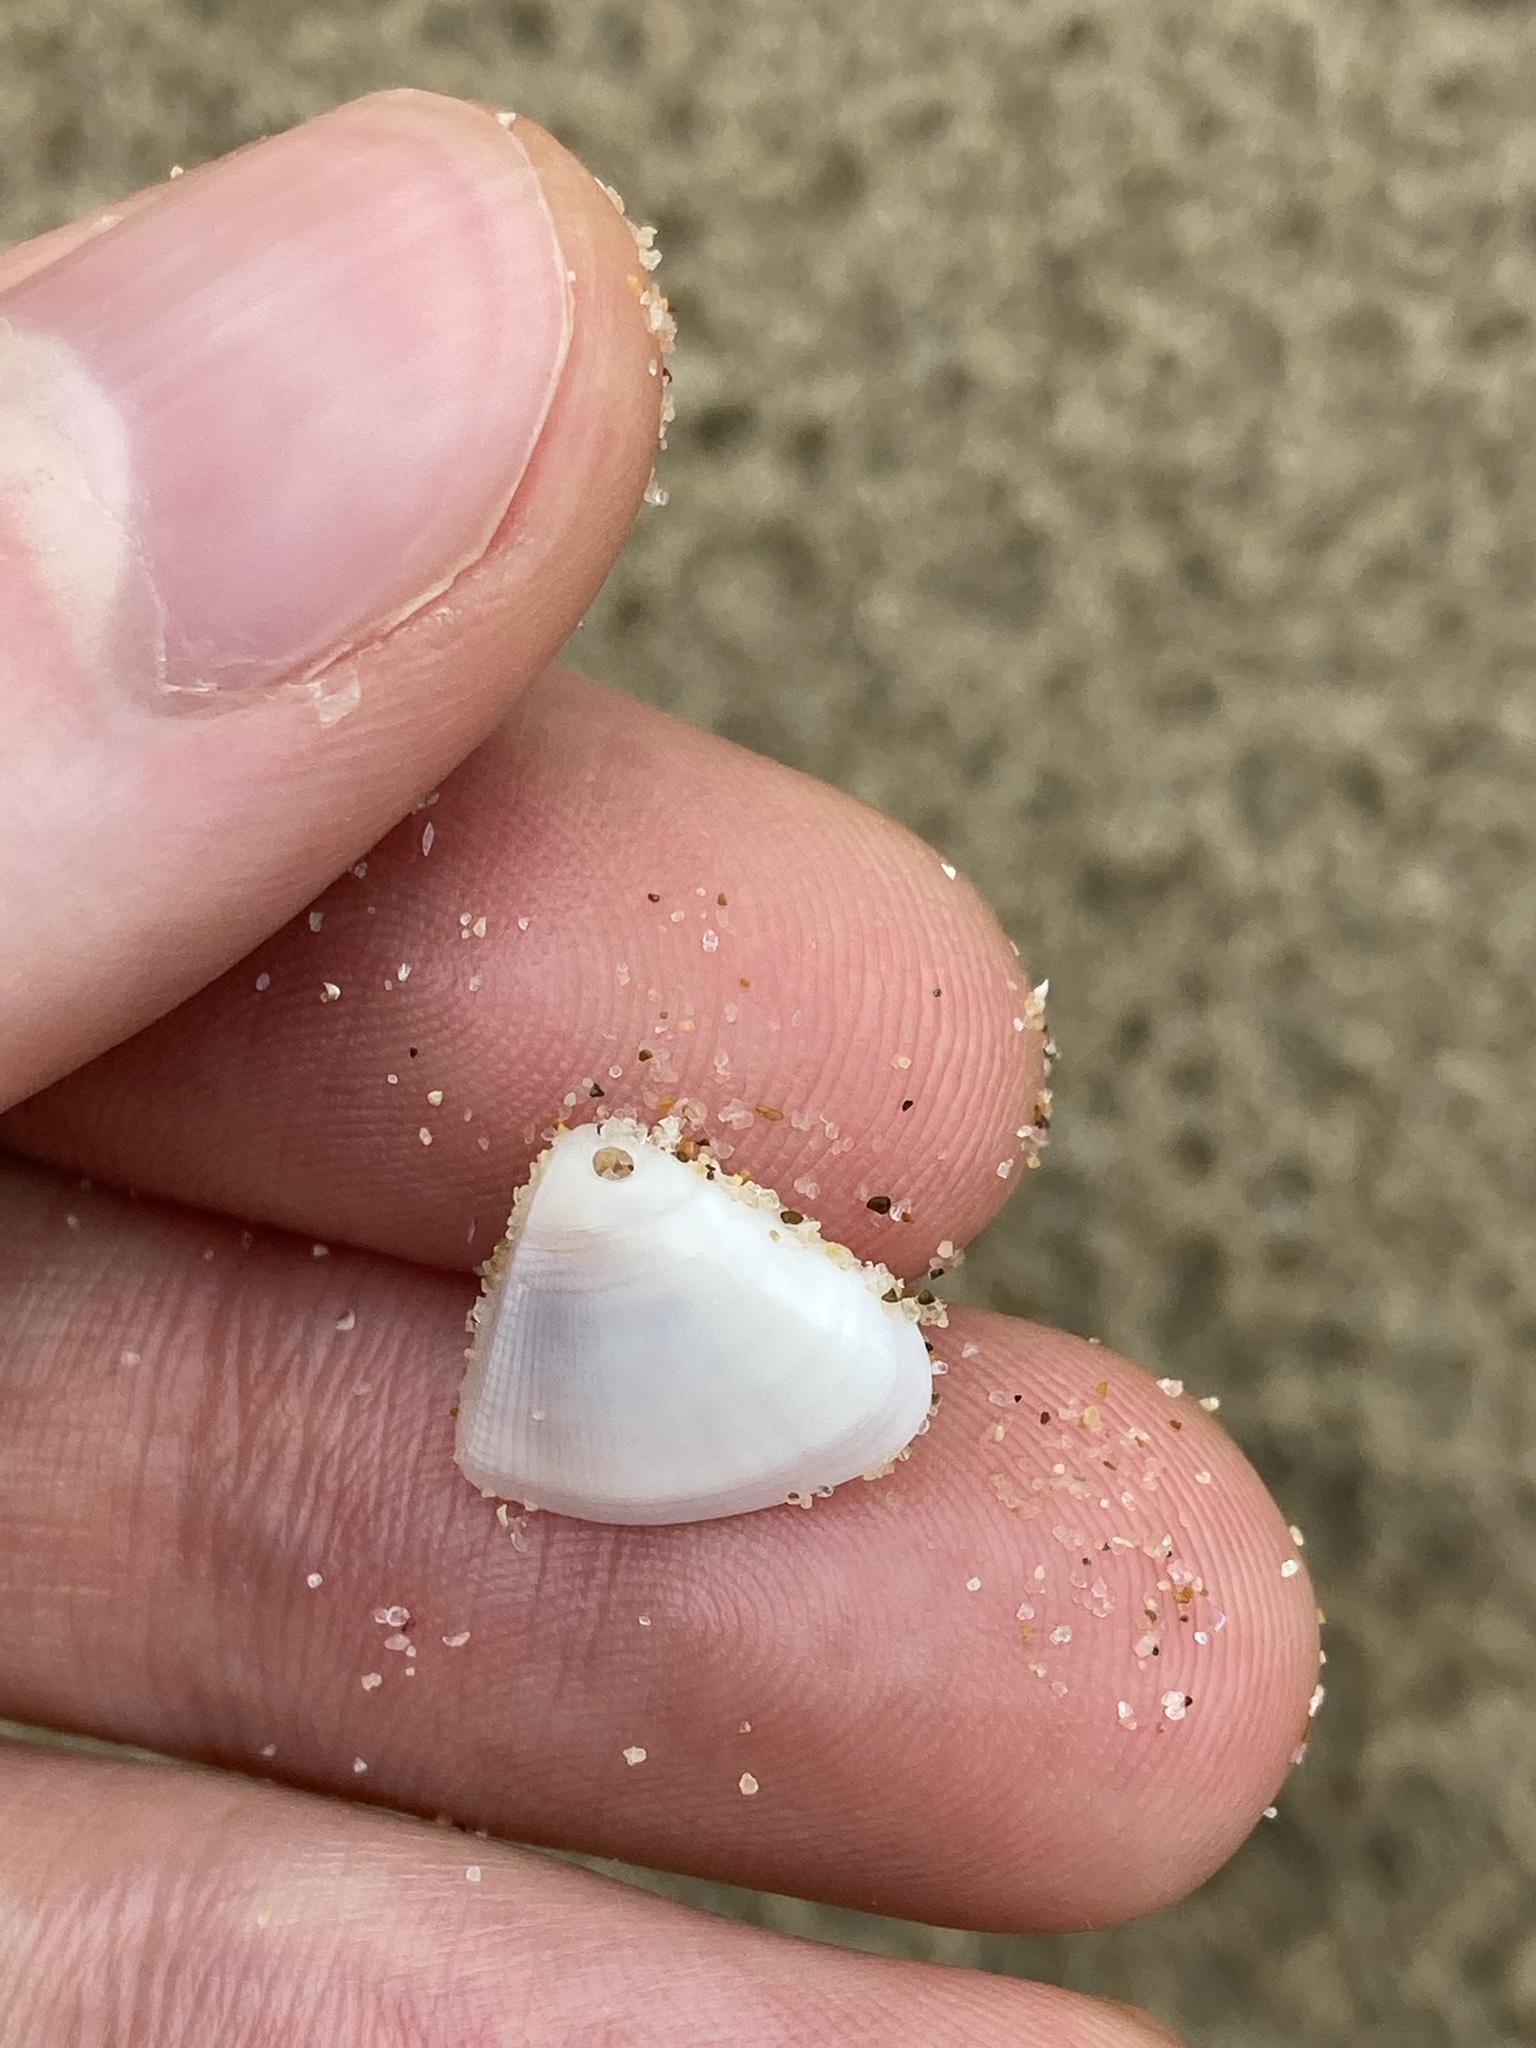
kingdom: Animalia
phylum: Mollusca
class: Bivalvia
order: Cardiida
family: Donacidae
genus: Donax
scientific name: Donax brazieri
